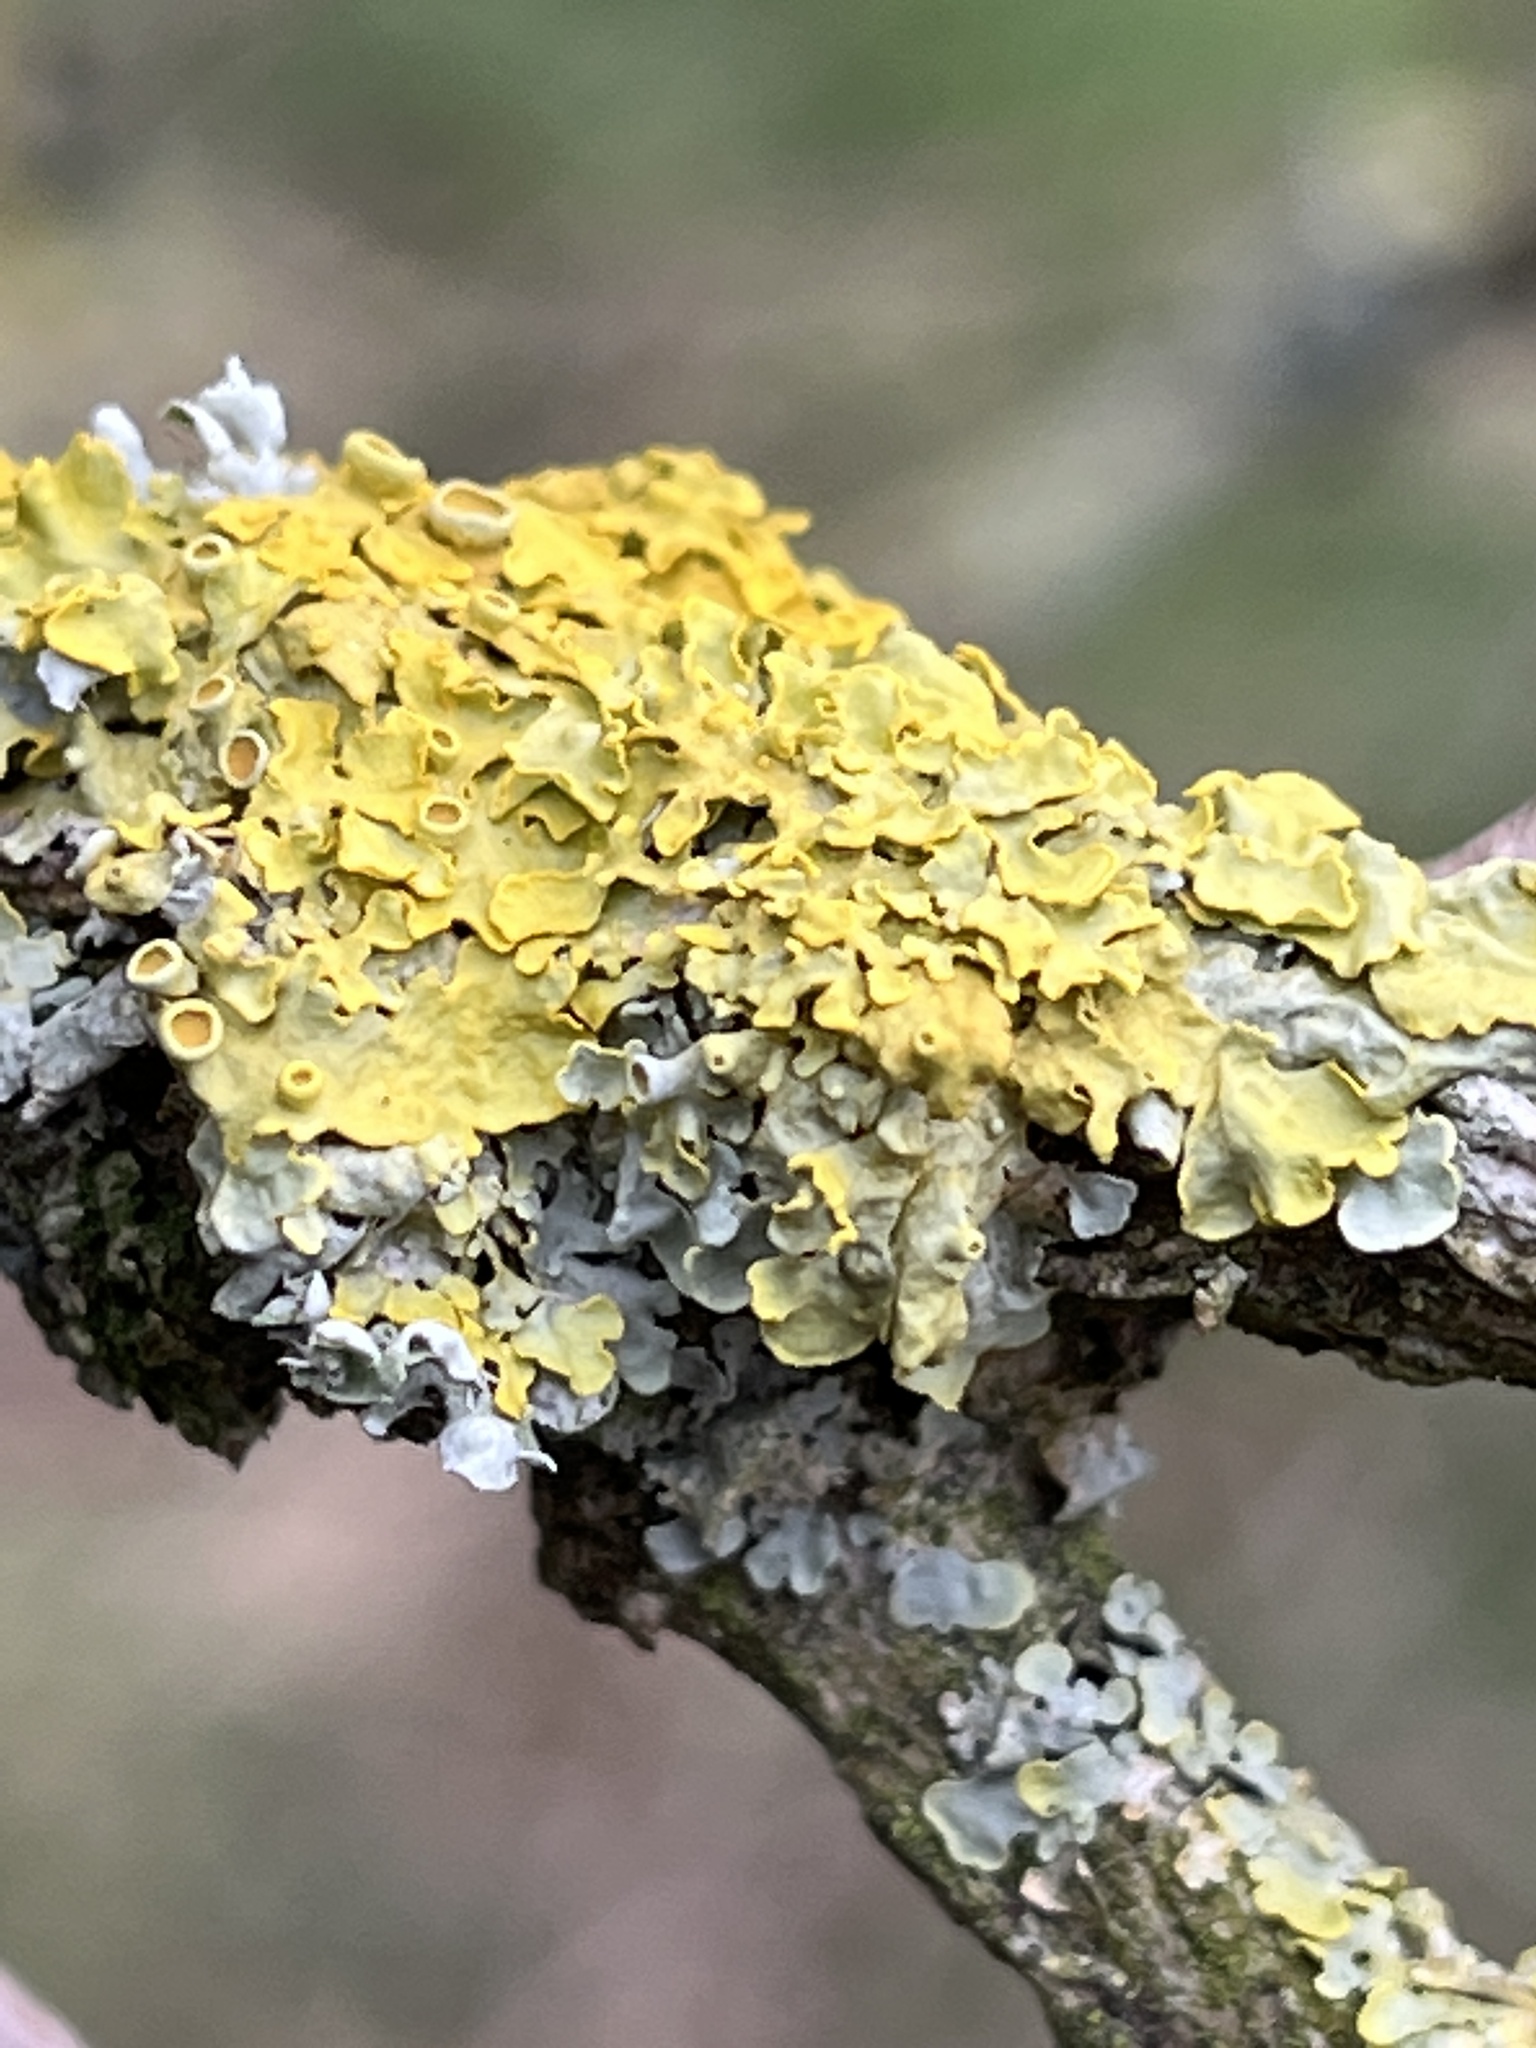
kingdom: Fungi
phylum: Ascomycota
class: Lecanoromycetes
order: Teloschistales
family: Teloschistaceae
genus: Xanthoria
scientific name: Xanthoria parietina
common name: Common orange lichen
